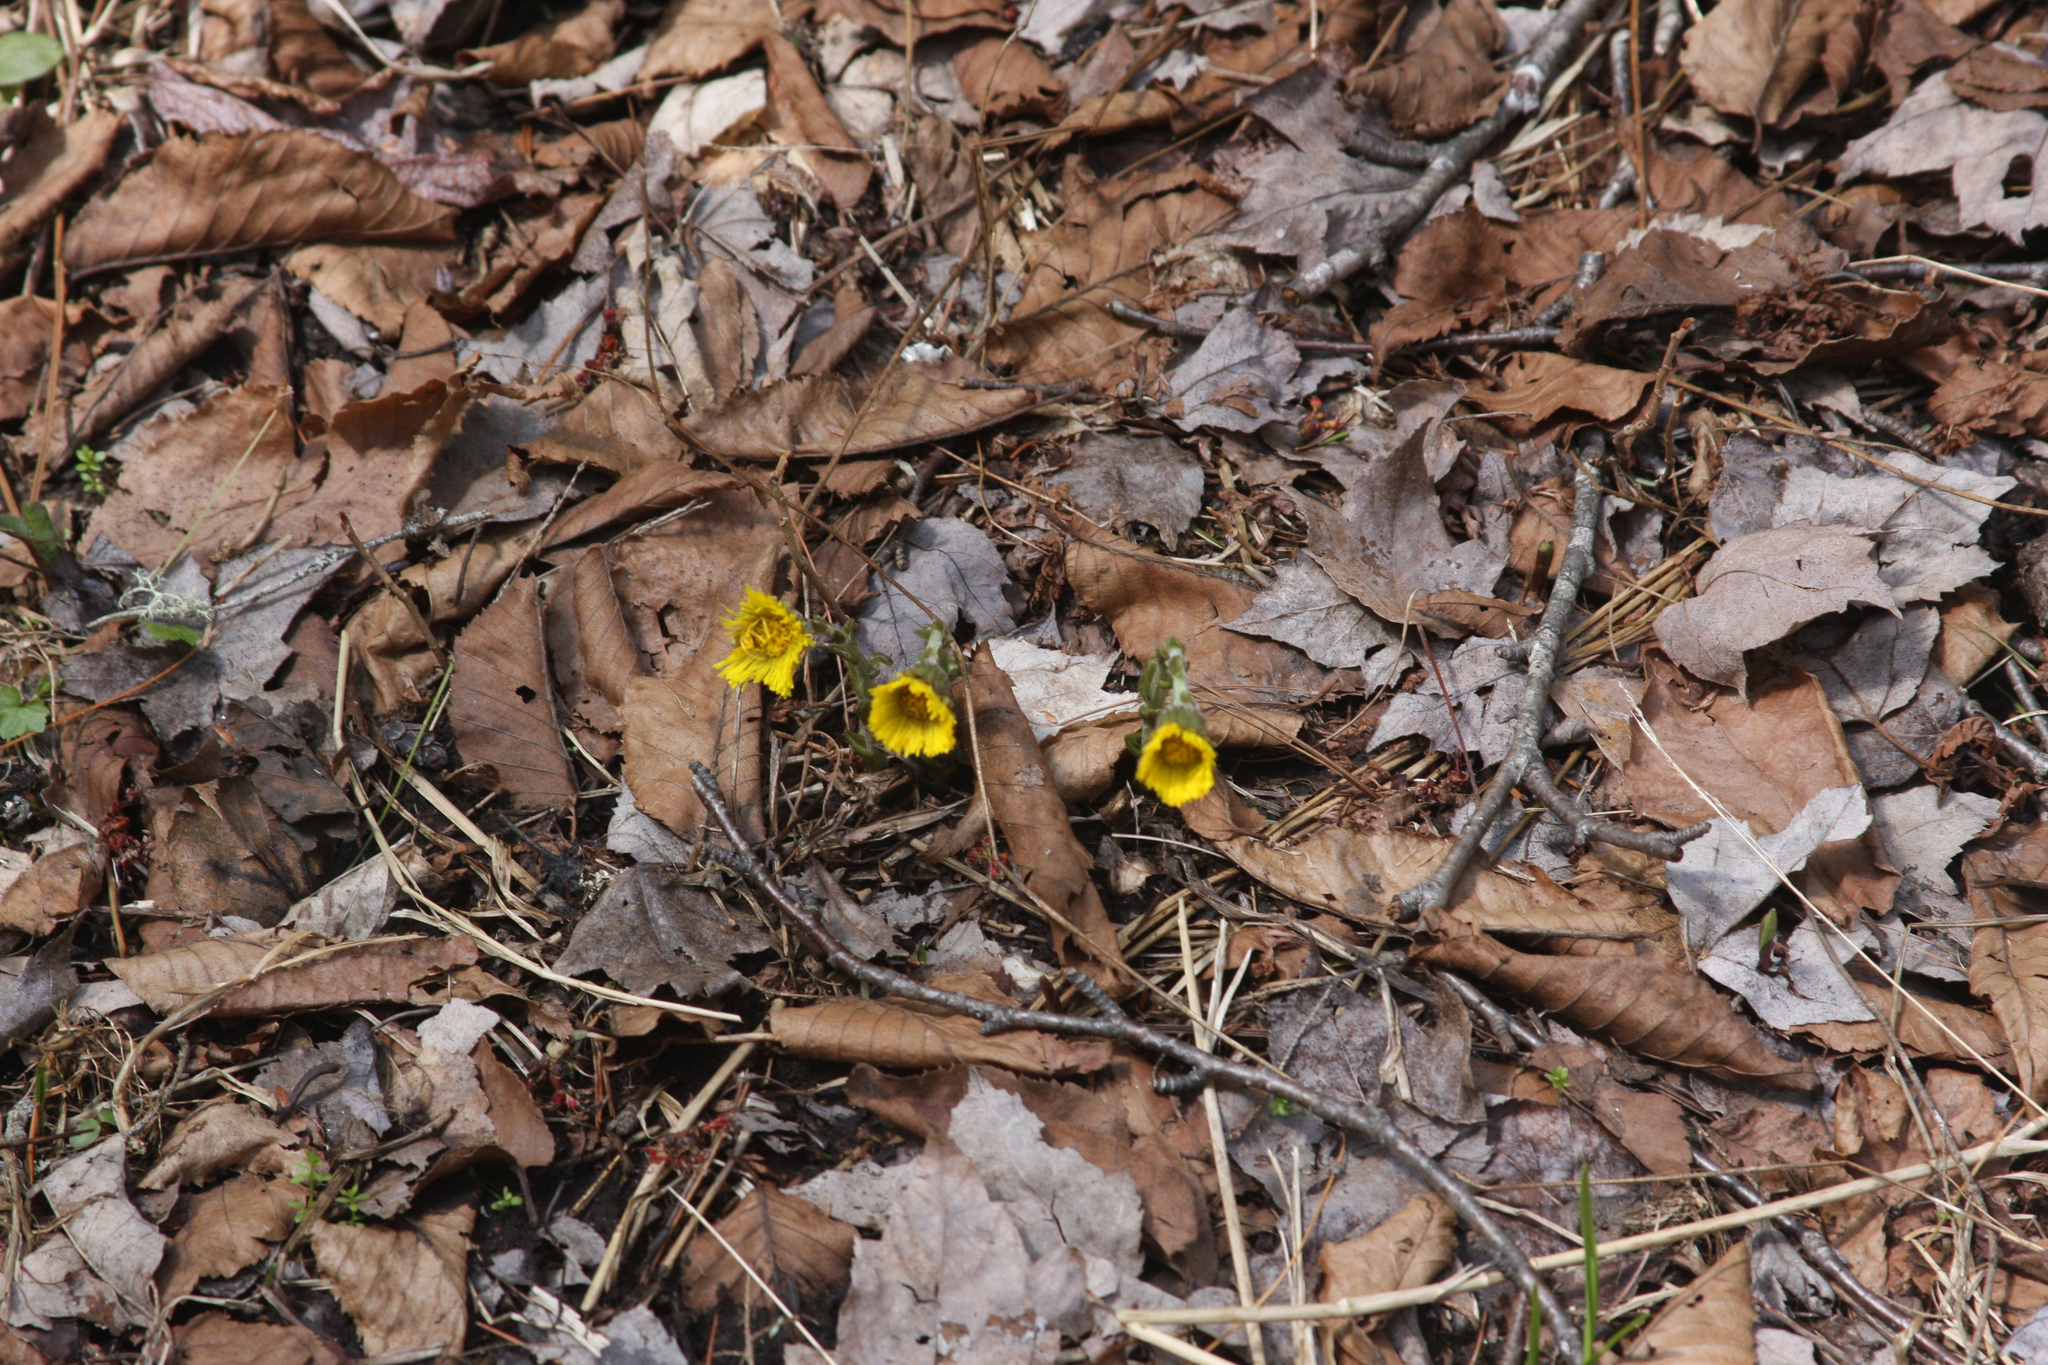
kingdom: Plantae
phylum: Tracheophyta
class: Magnoliopsida
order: Asterales
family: Asteraceae
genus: Tussilago
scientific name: Tussilago farfara
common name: Coltsfoot
